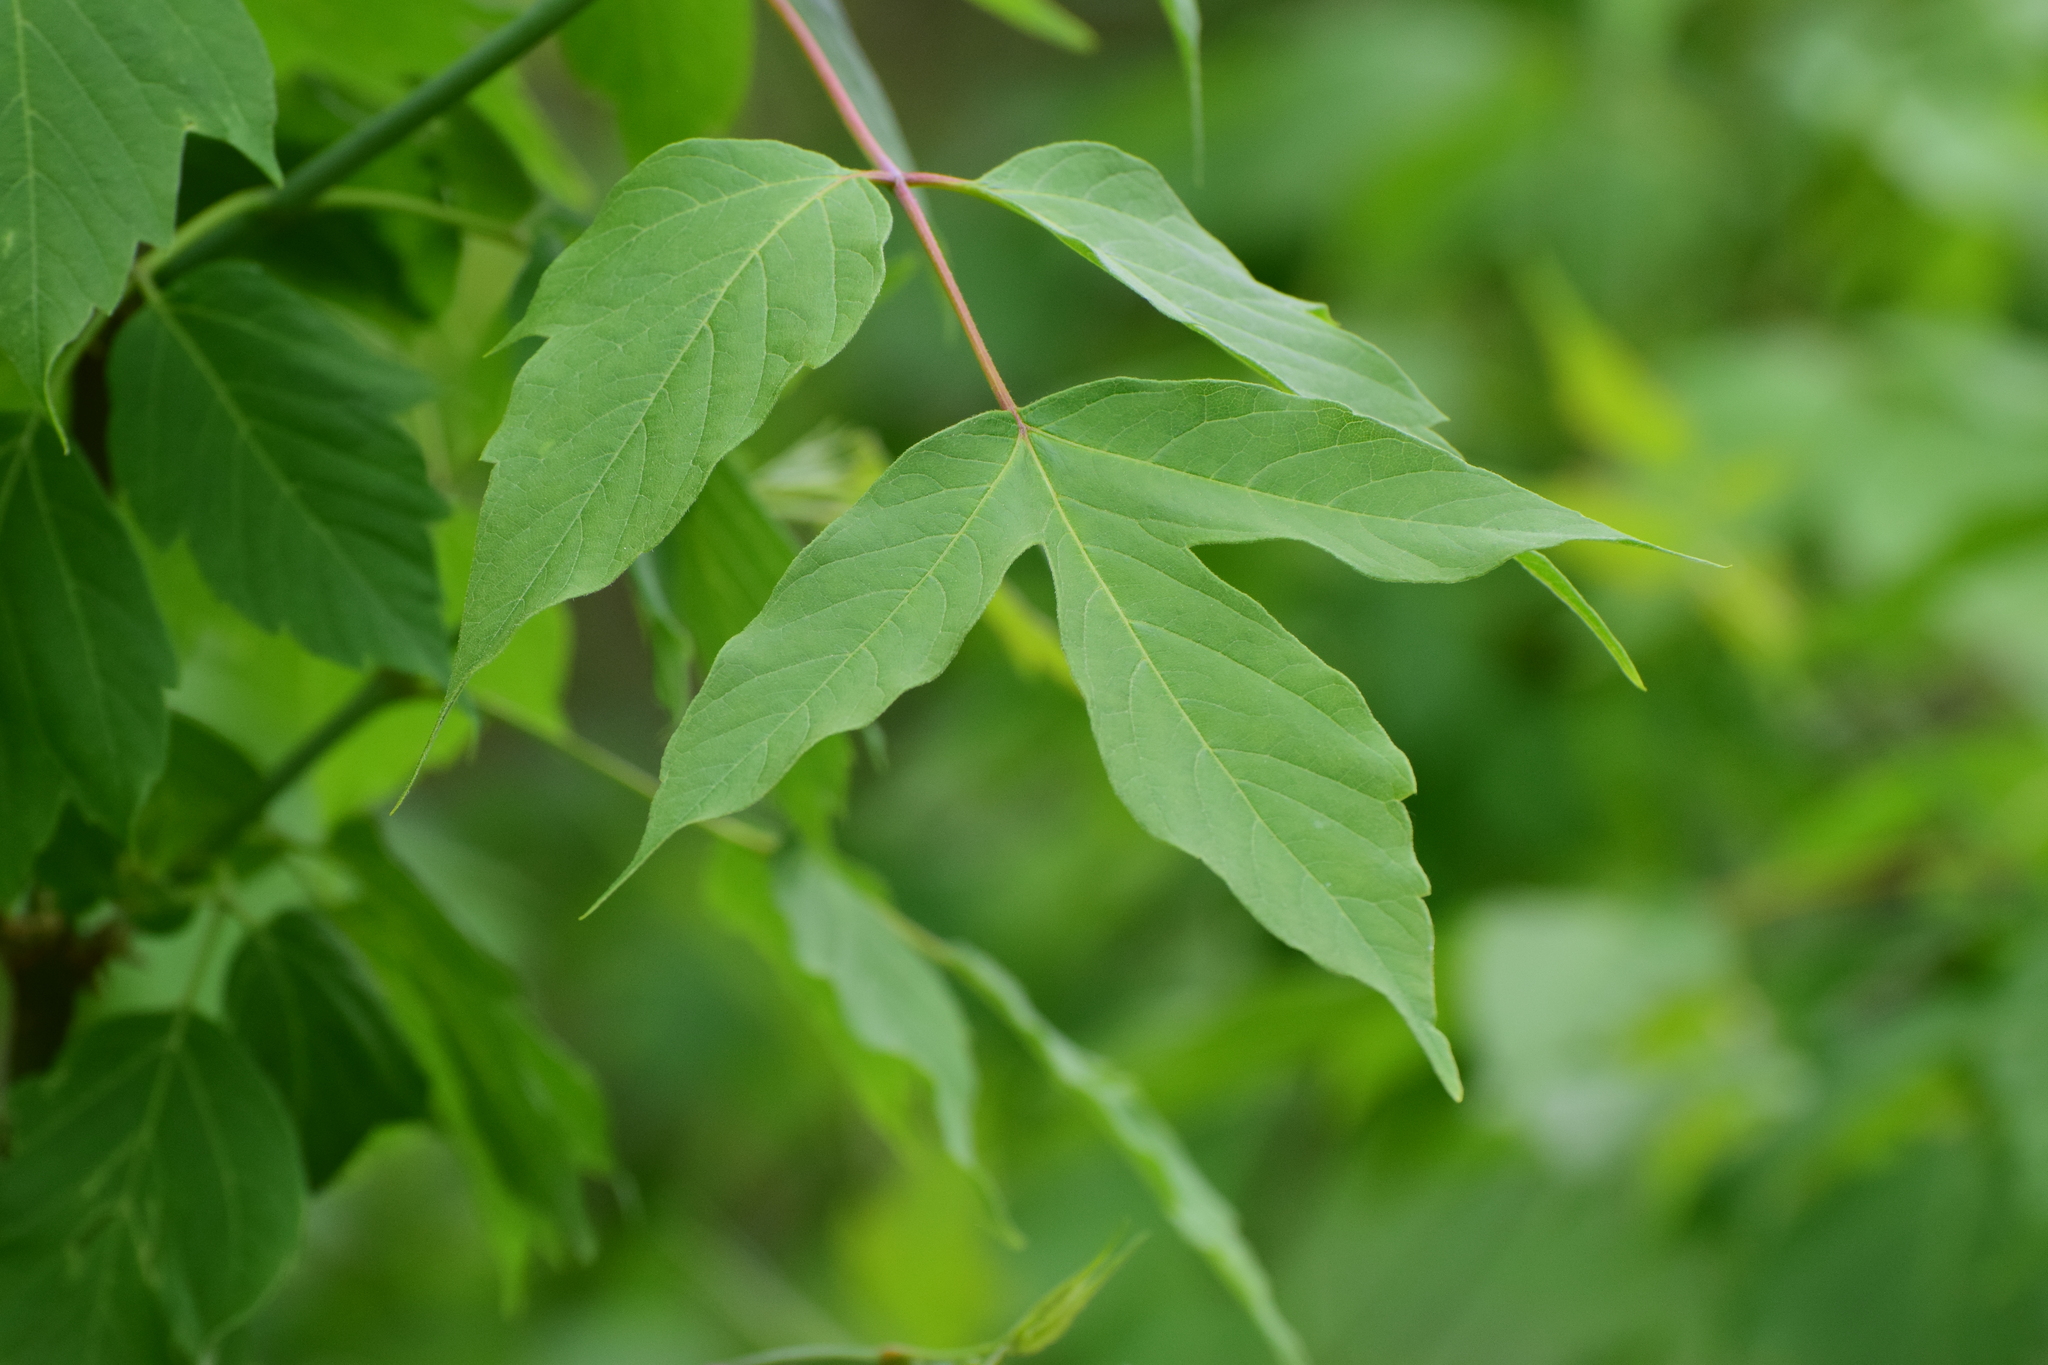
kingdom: Plantae
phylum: Tracheophyta
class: Magnoliopsida
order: Sapindales
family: Sapindaceae
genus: Acer
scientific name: Acer negundo
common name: Ashleaf maple
